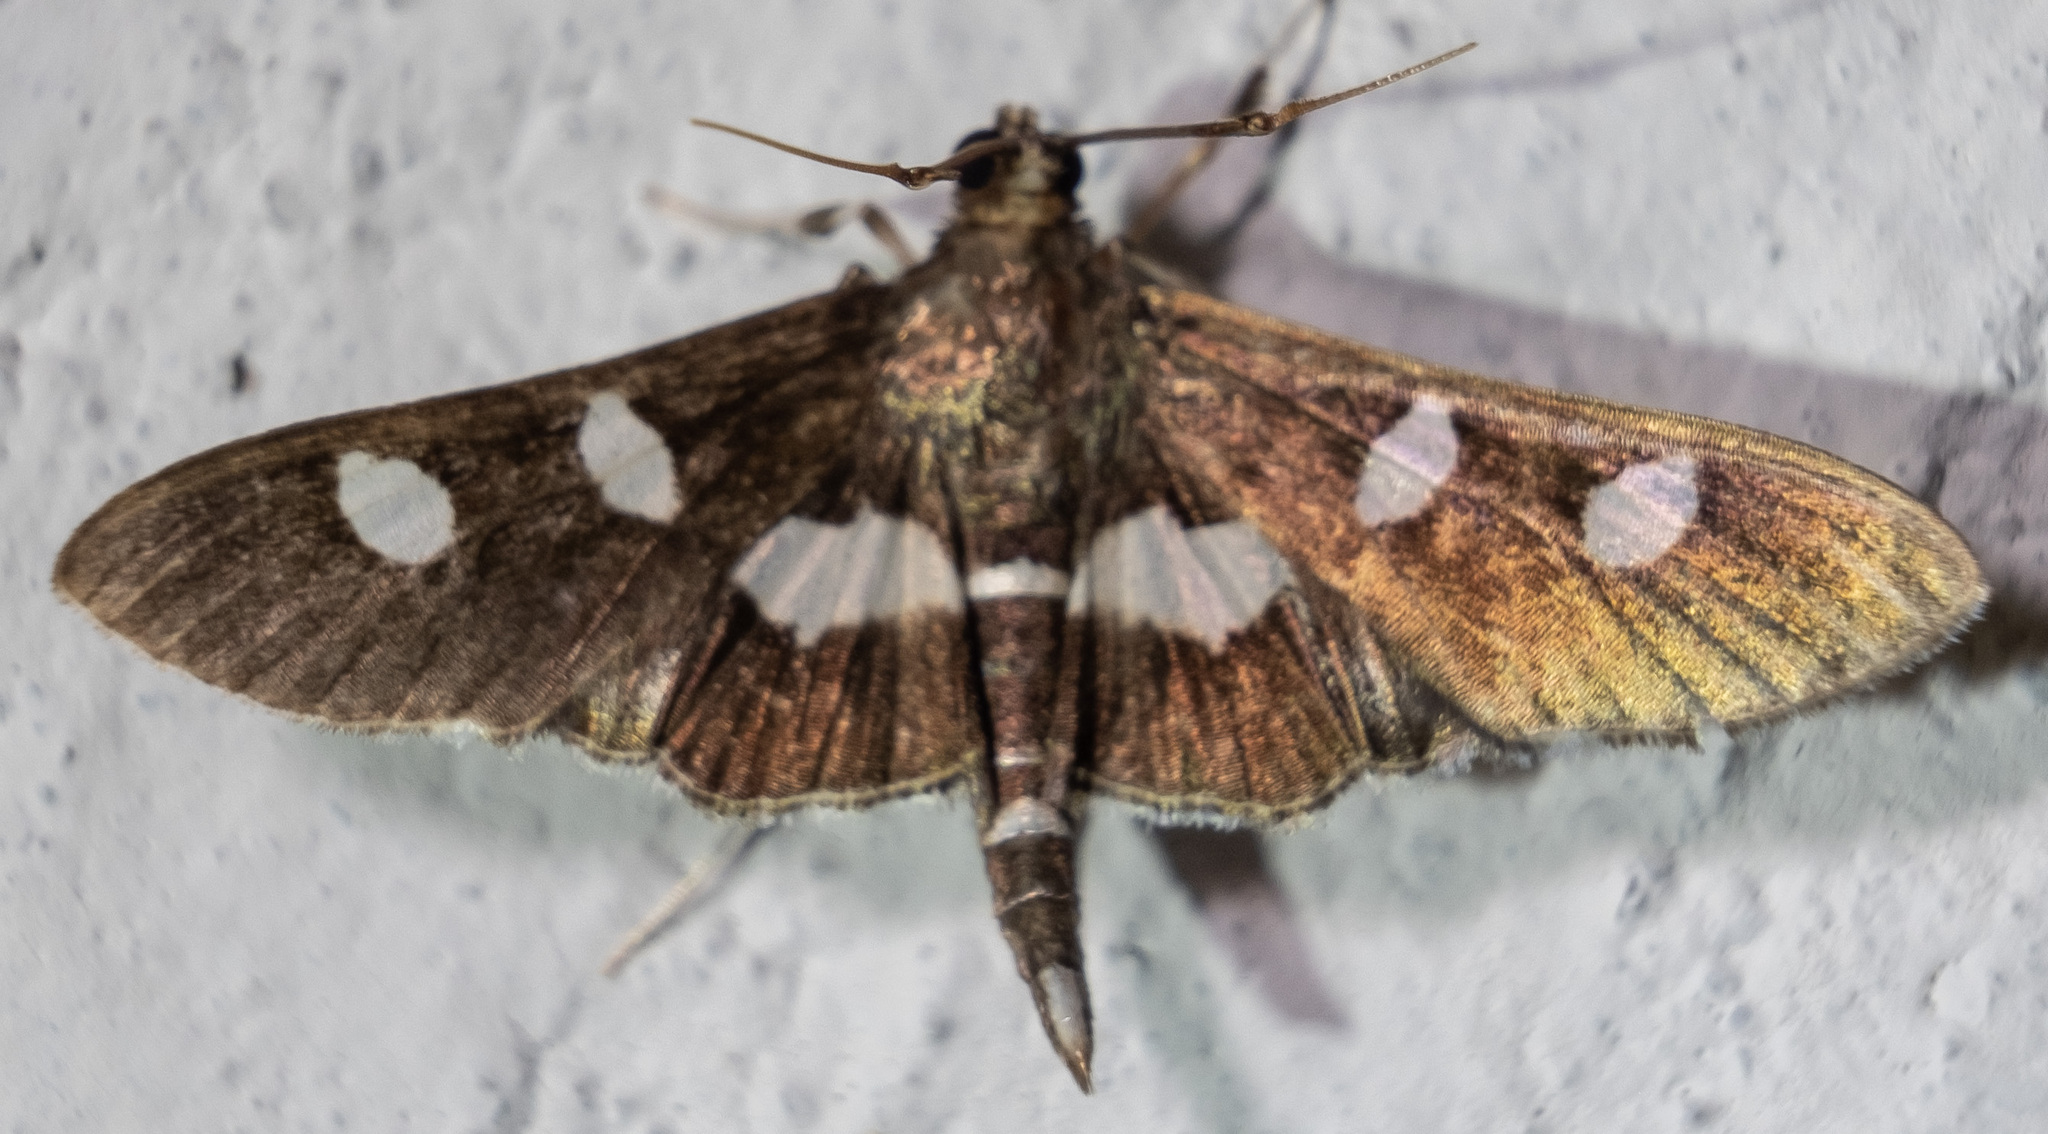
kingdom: Animalia
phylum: Arthropoda
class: Insecta
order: Lepidoptera
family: Crambidae
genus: Desmia
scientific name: Desmia
